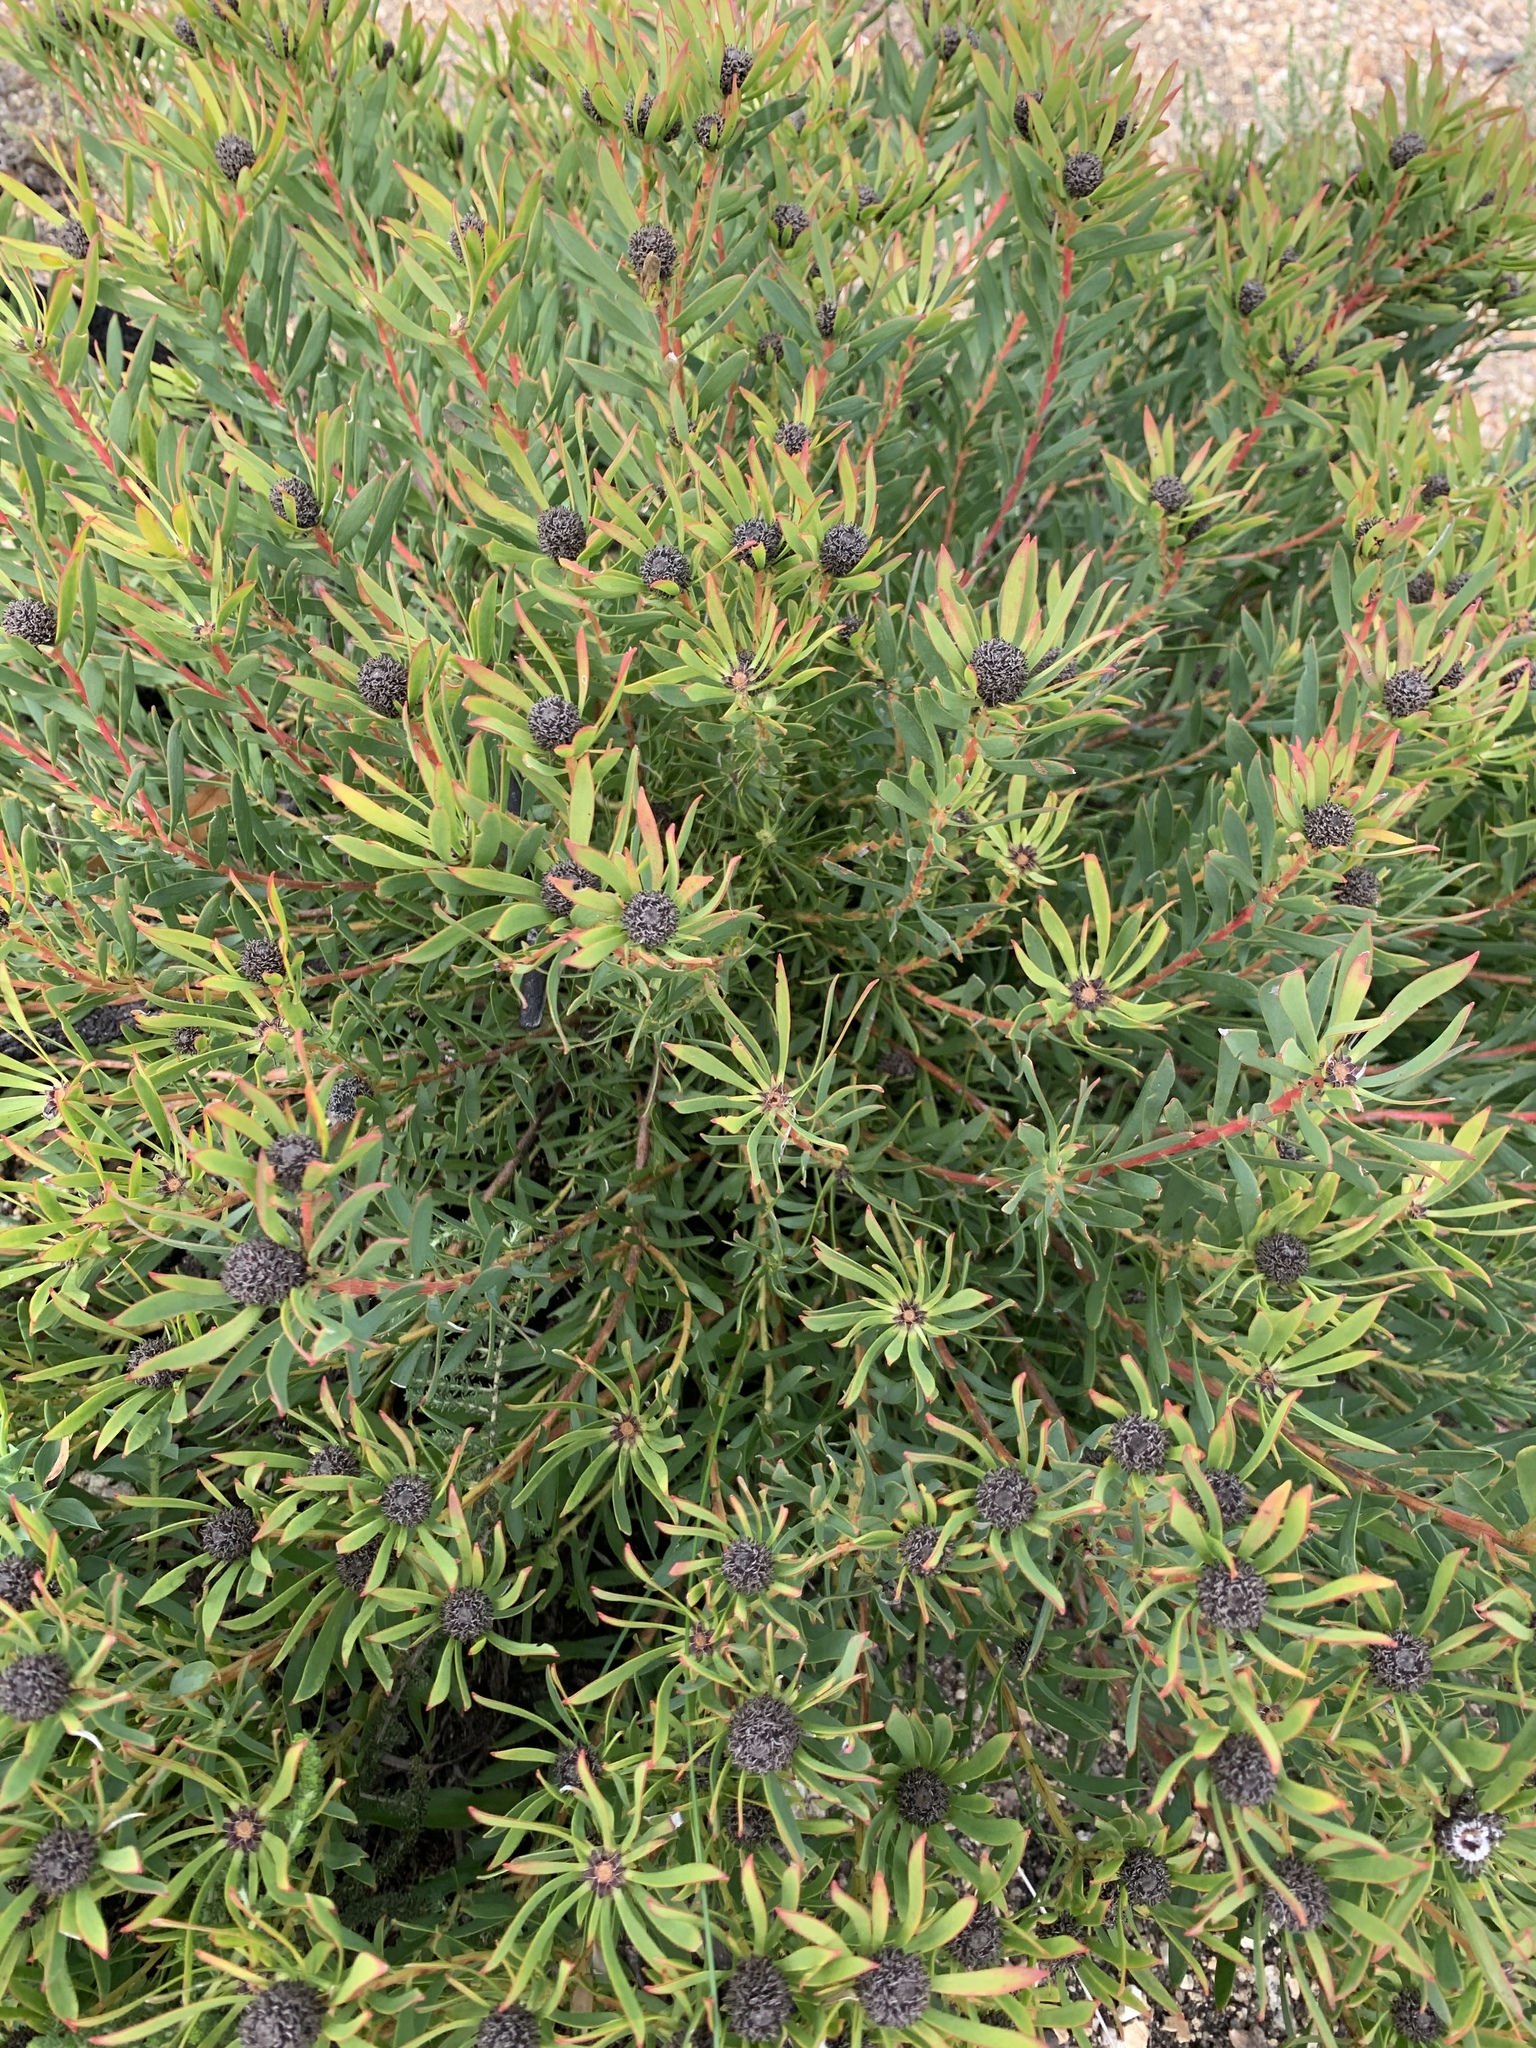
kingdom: Plantae
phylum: Tracheophyta
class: Magnoliopsida
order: Proteales
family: Proteaceae
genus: Leucadendron
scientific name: Leucadendron salignum
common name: Common sunshine conebush
